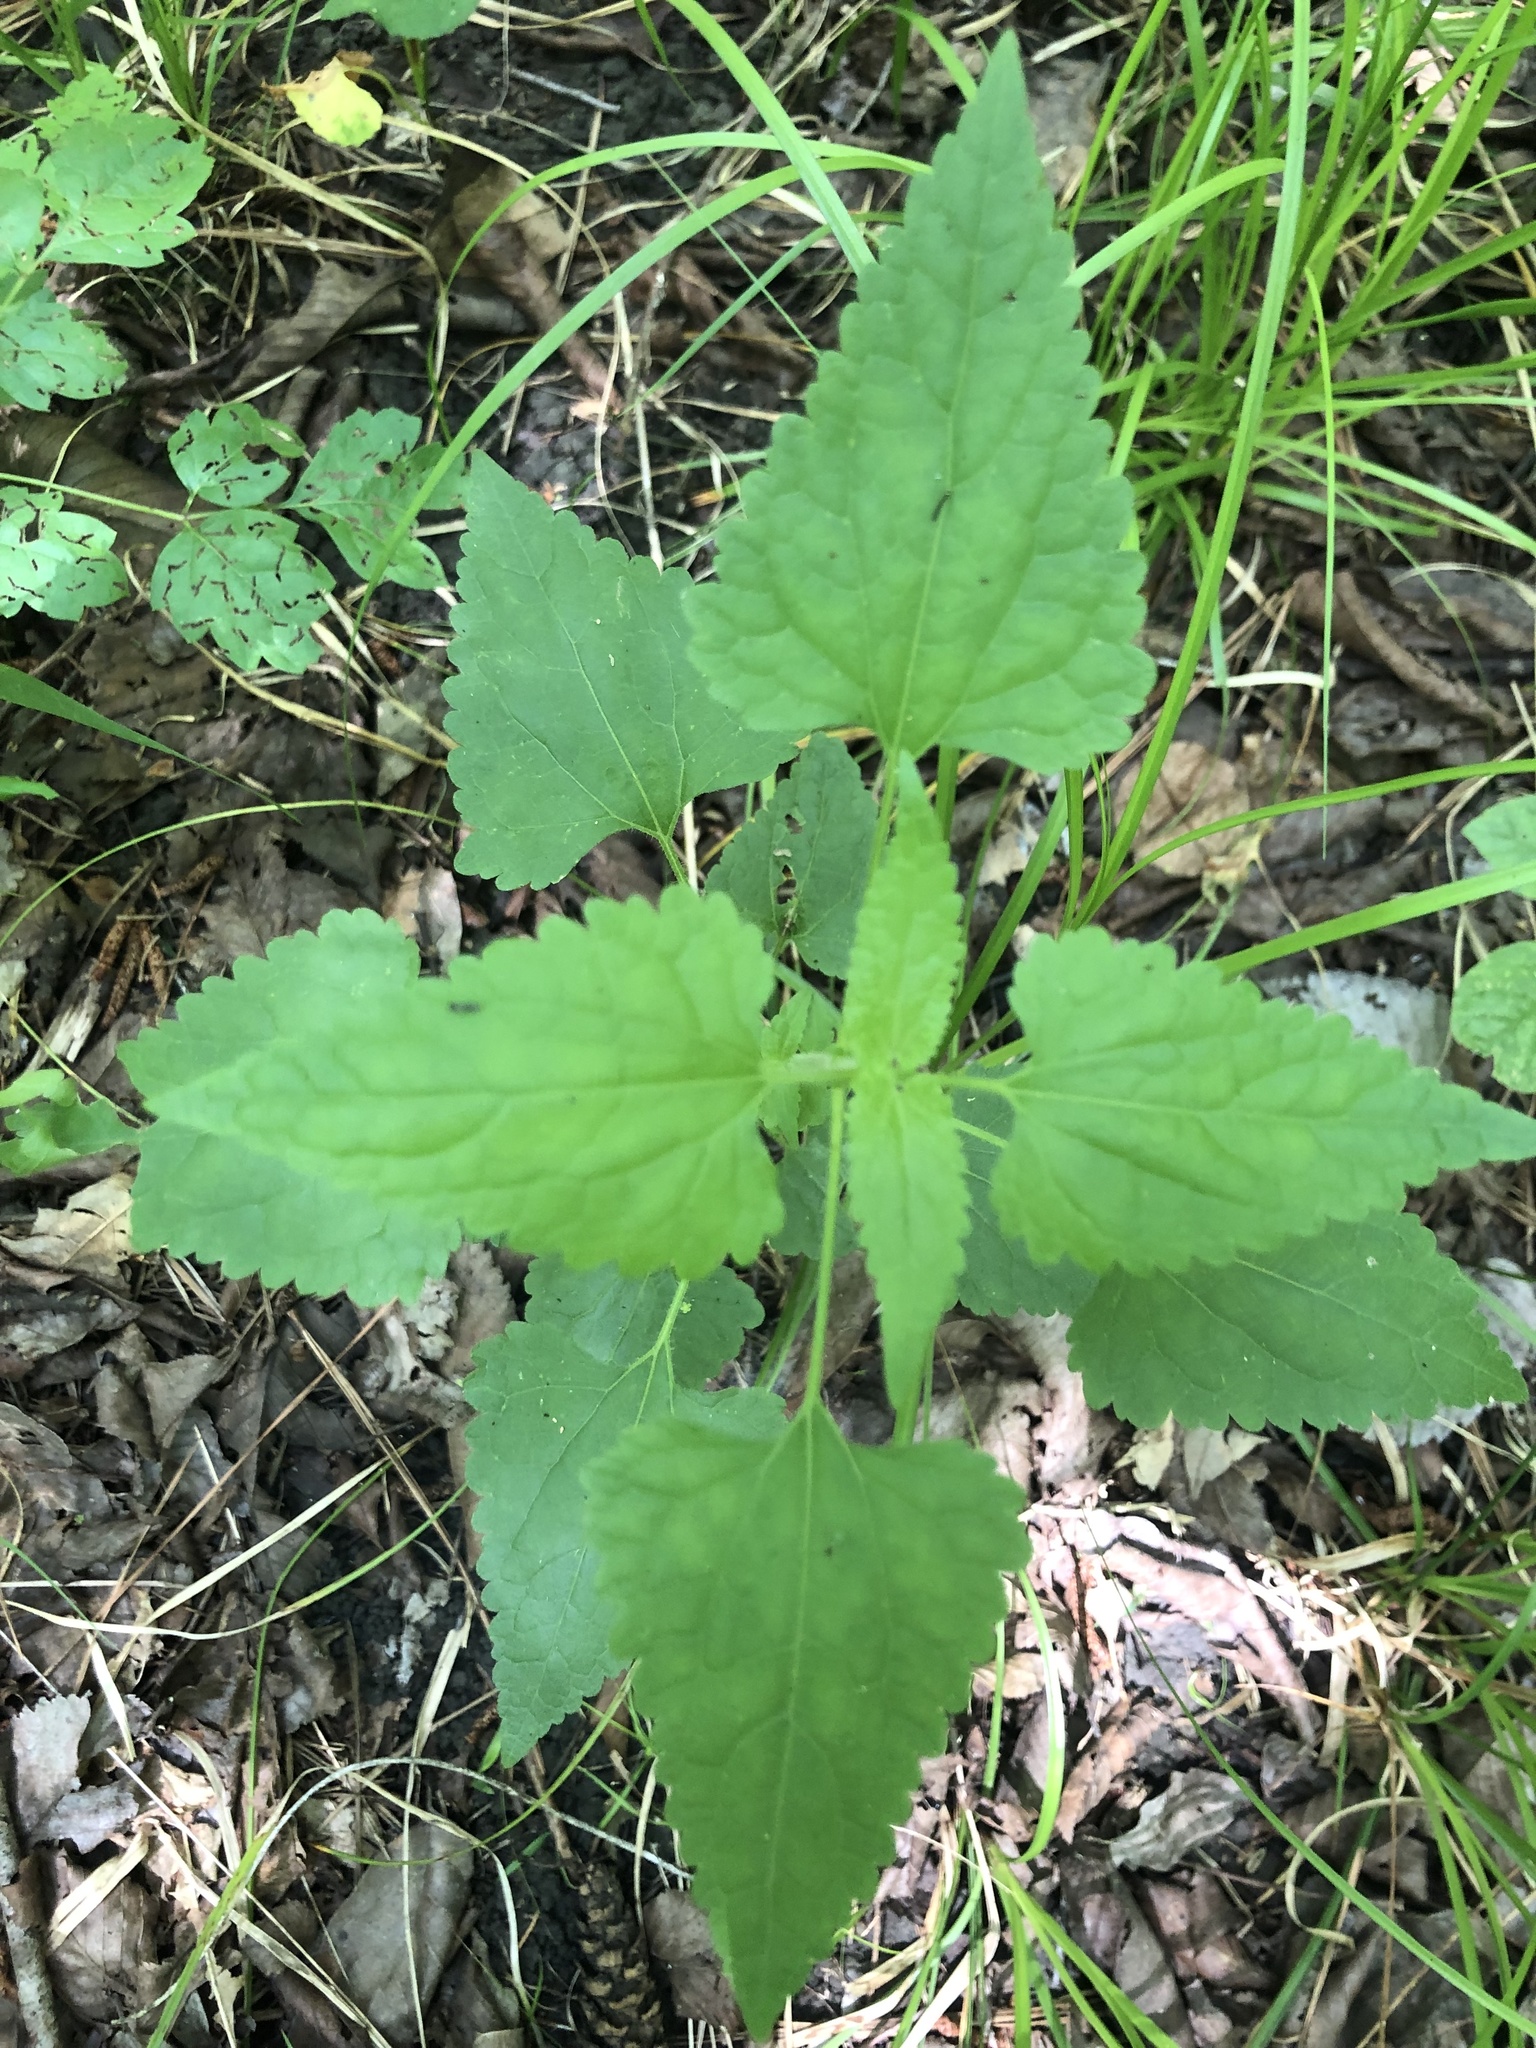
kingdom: Plantae
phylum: Tracheophyta
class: Magnoliopsida
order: Asterales
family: Asteraceae
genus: Fleischmannia
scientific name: Fleischmannia incarnata
